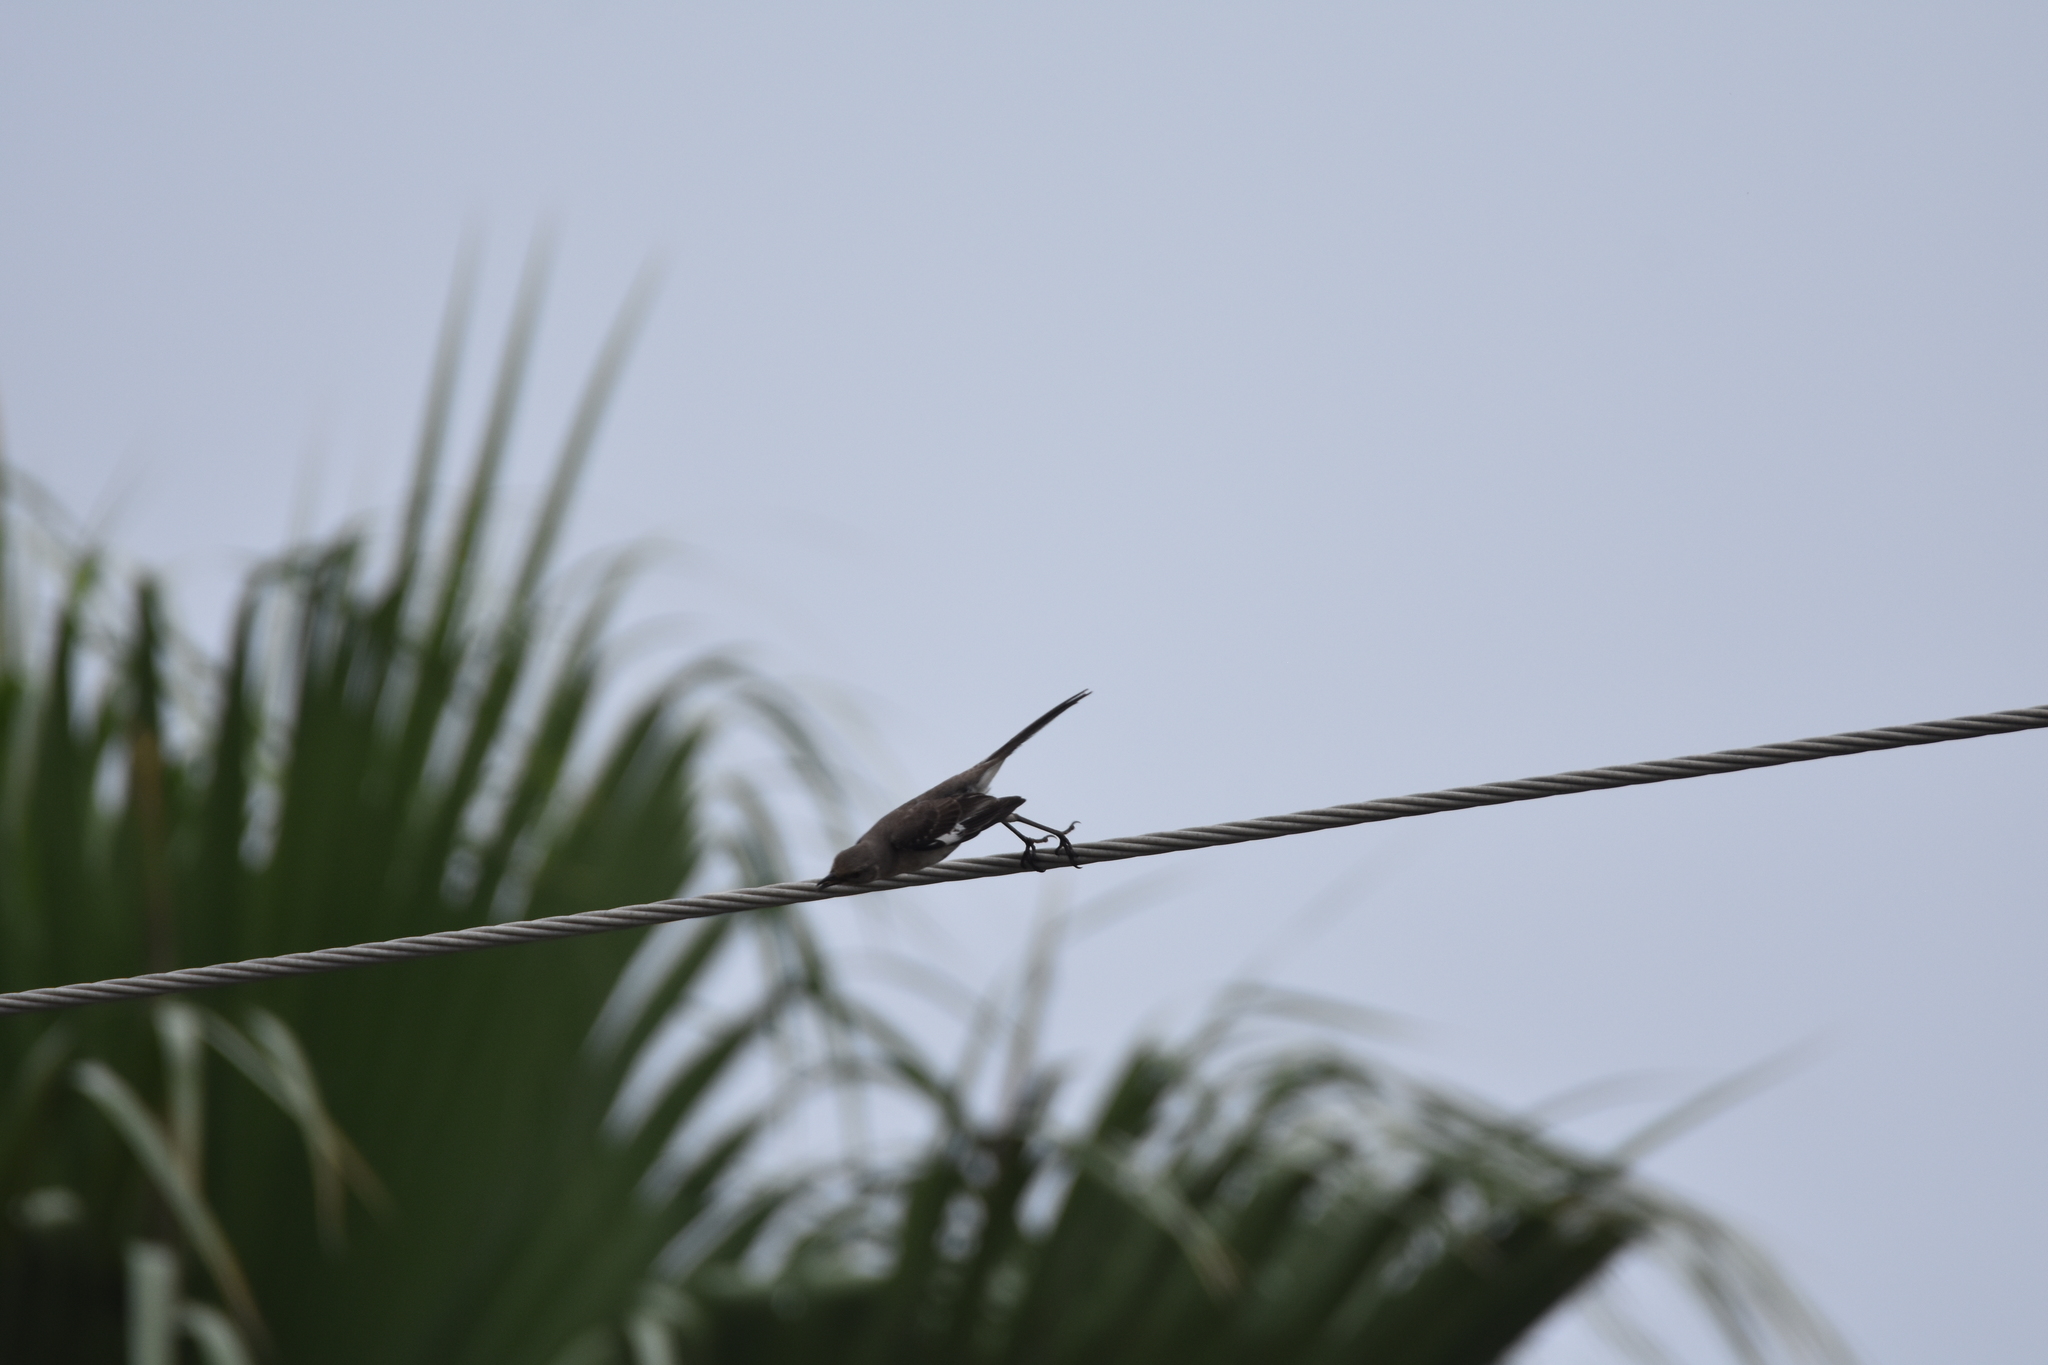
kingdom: Animalia
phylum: Chordata
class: Aves
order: Passeriformes
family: Mimidae
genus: Mimus
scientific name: Mimus polyglottos
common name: Northern mockingbird
